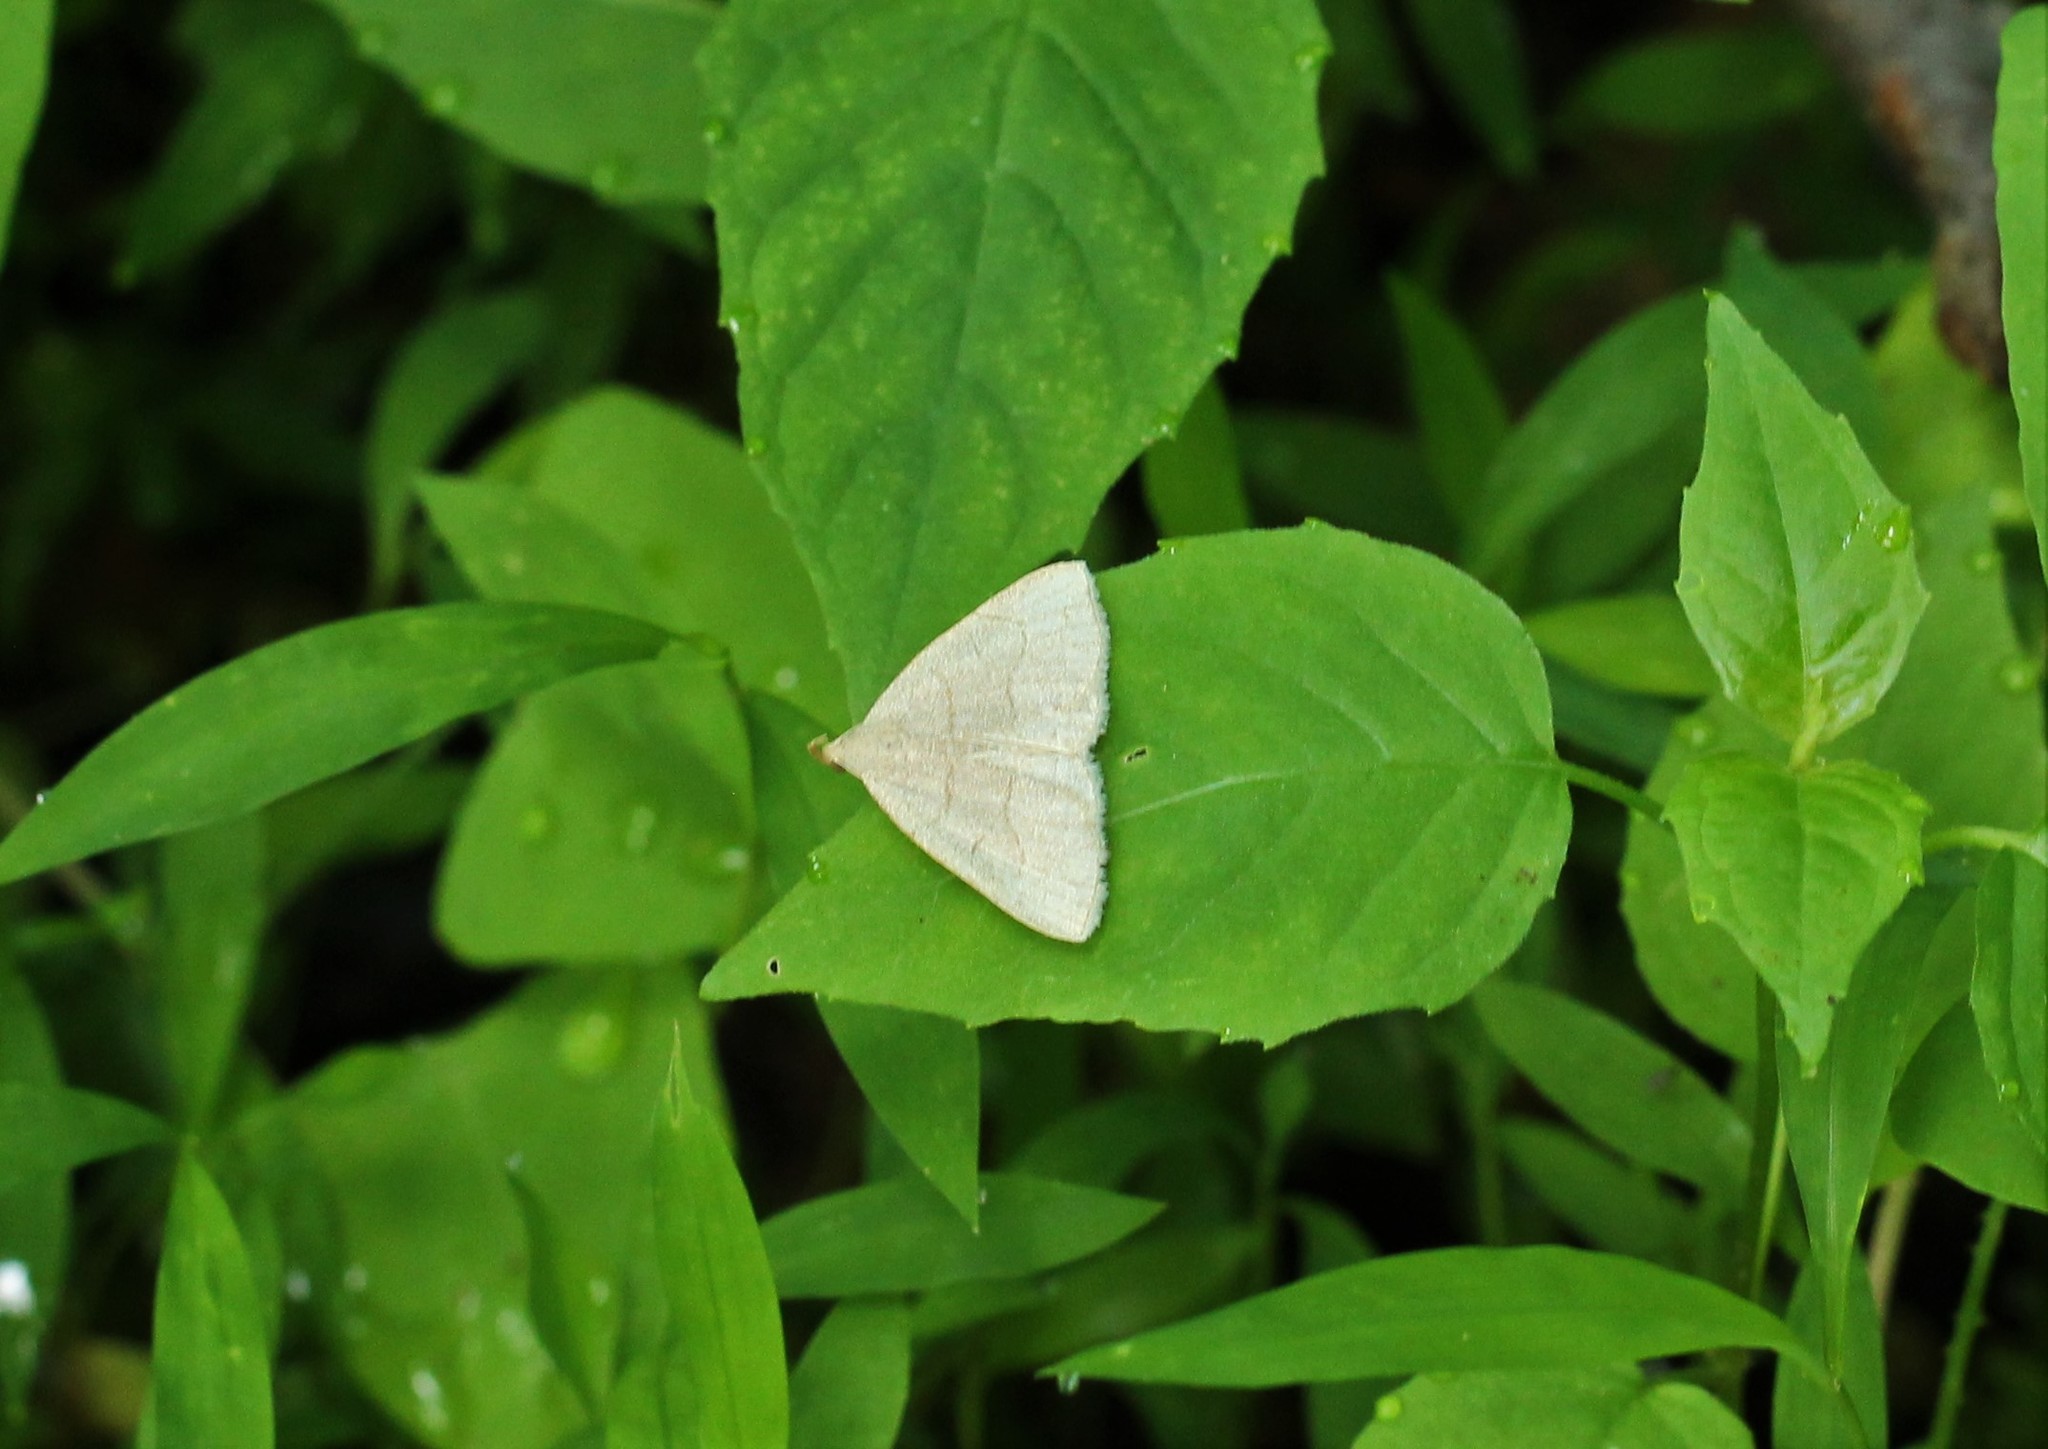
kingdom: Animalia
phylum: Arthropoda
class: Insecta
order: Lepidoptera
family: Erebidae
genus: Zanclognatha
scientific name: Zanclognatha pedipilalis
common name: Grayish fan-foot
